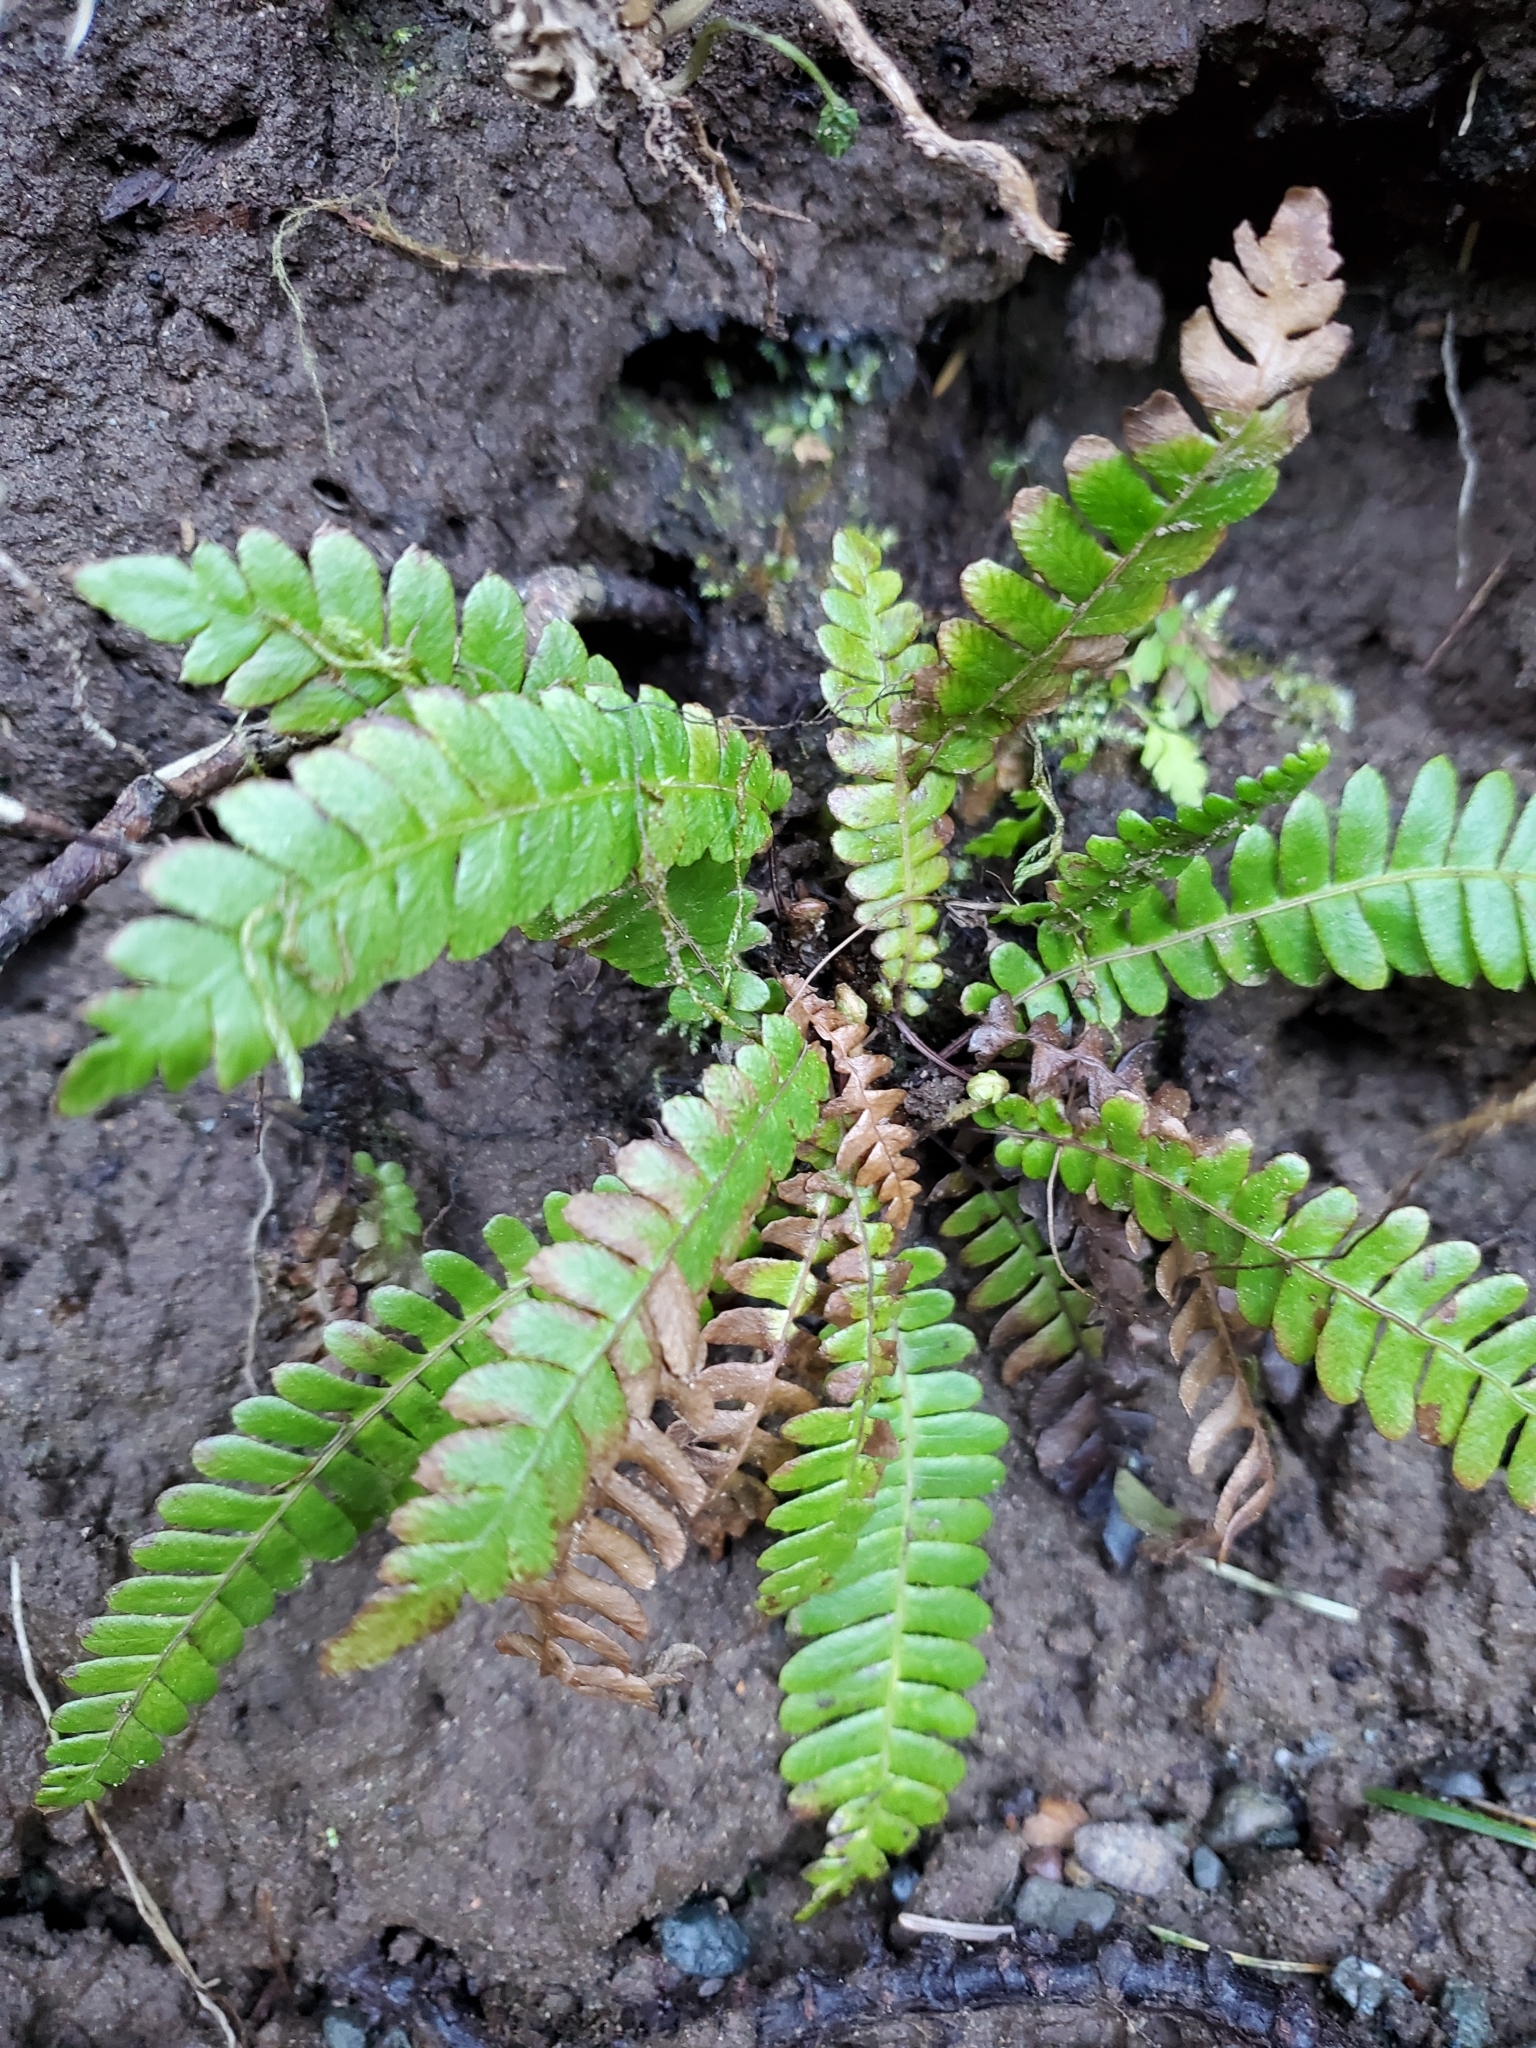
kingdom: Plantae
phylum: Tracheophyta
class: Polypodiopsida
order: Polypodiales
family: Blechnaceae
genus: Struthiopteris
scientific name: Struthiopteris spicant
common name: Deer fern
